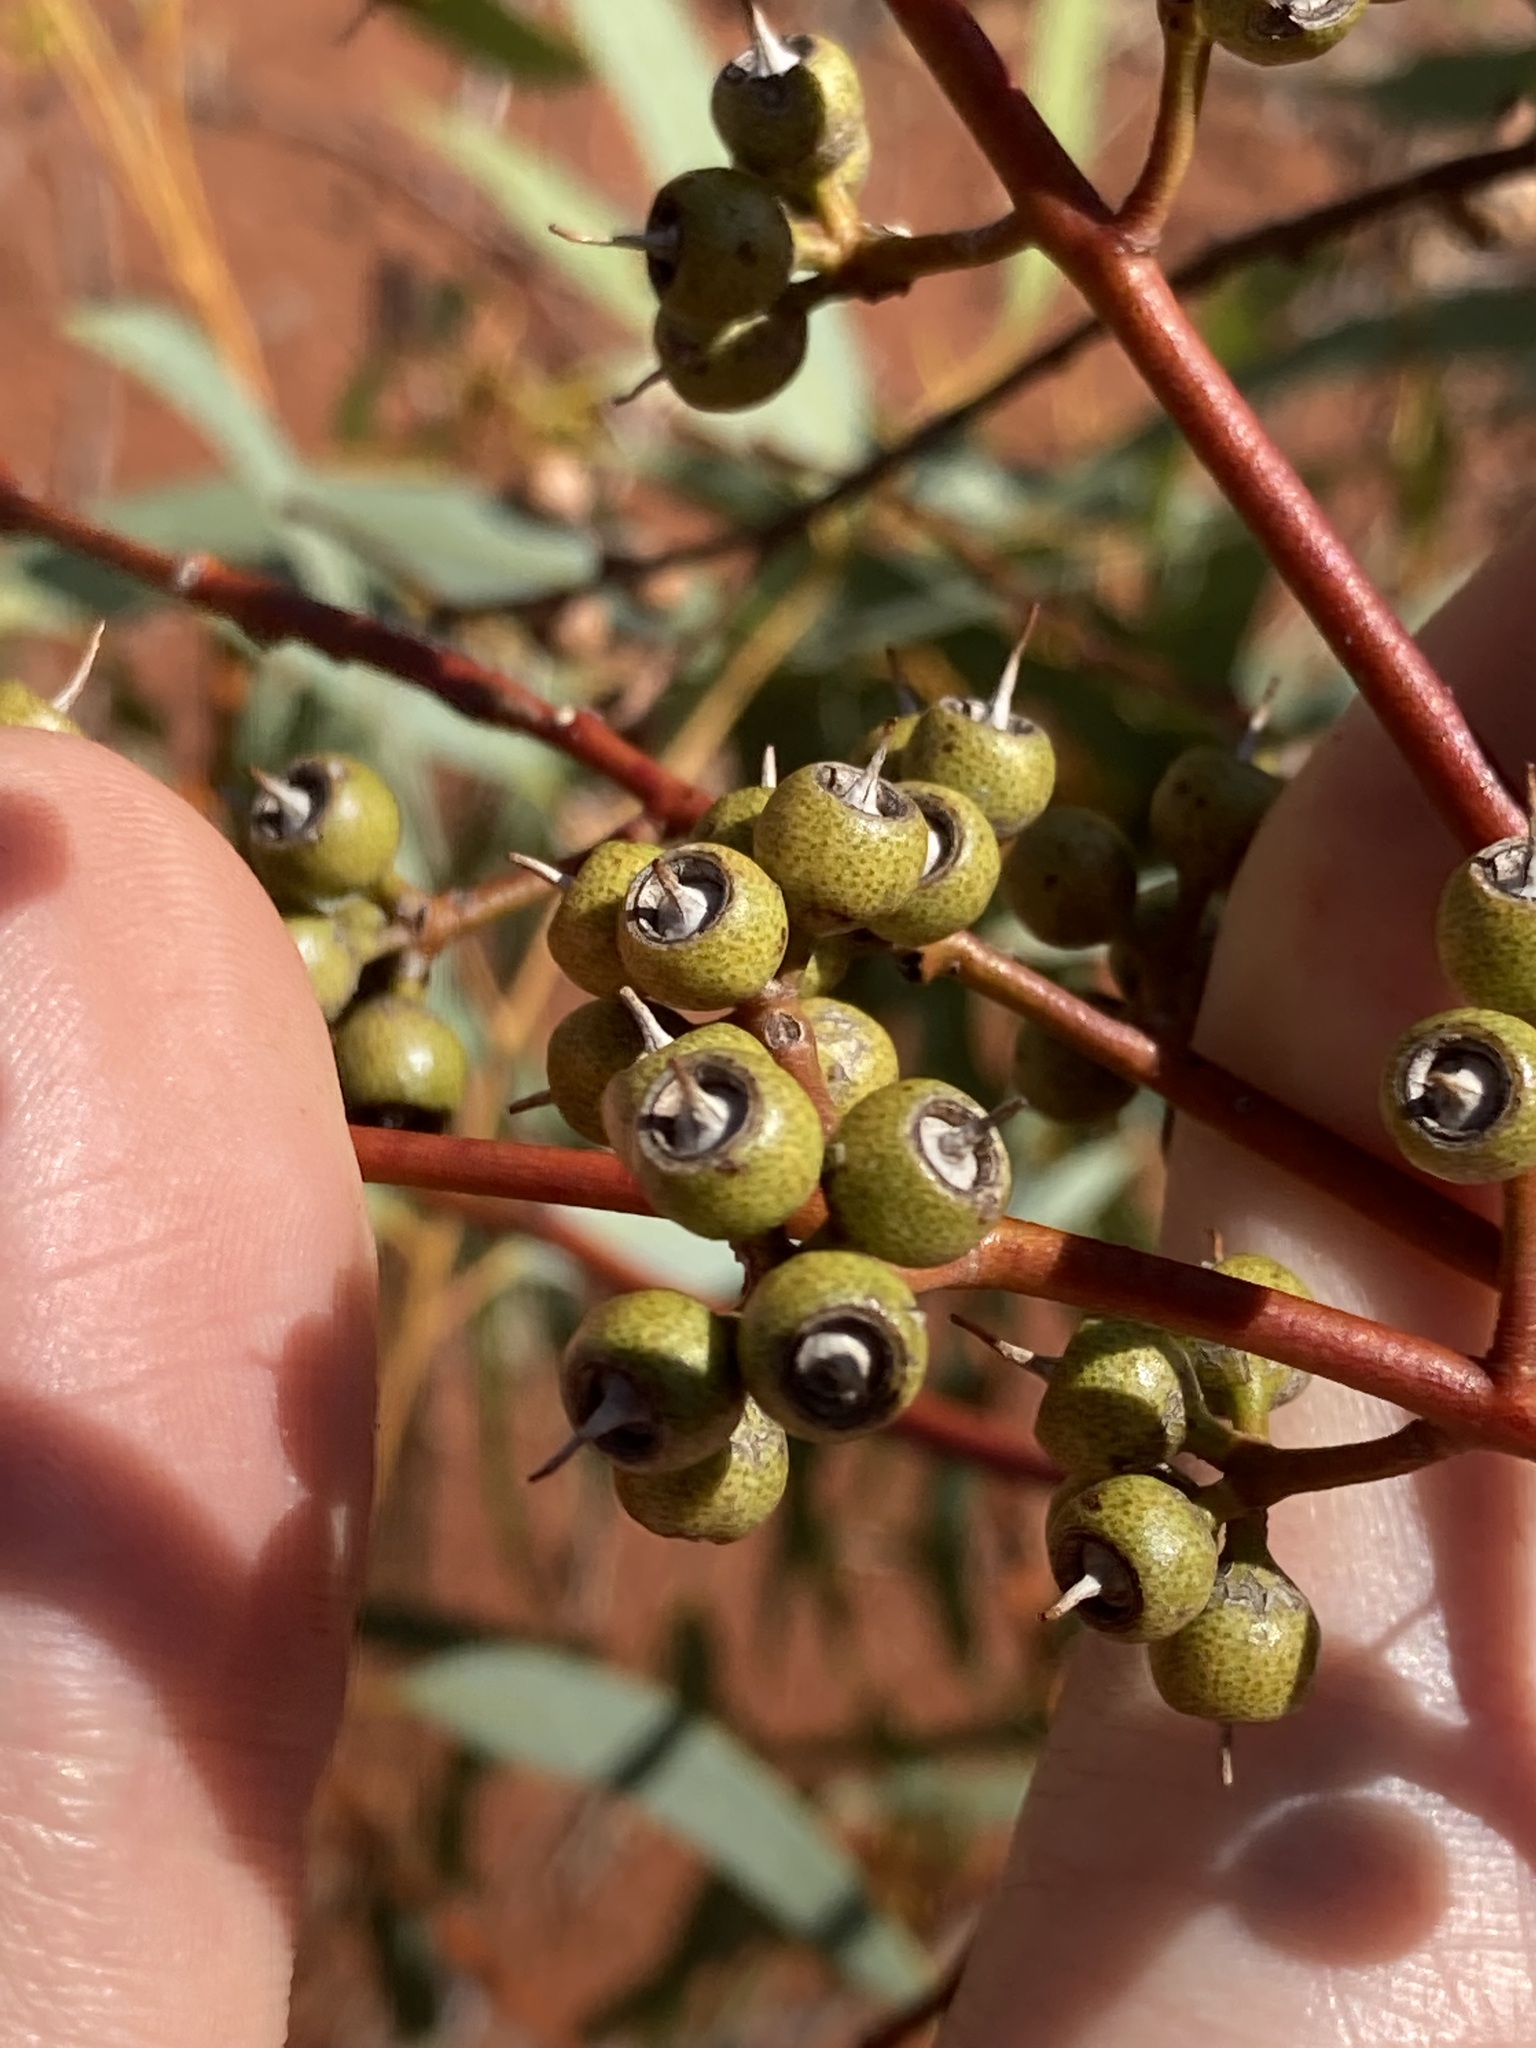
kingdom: Plantae
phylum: Tracheophyta
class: Magnoliopsida
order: Myrtales
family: Myrtaceae
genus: Eucalyptus
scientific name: Eucalyptus eremicola
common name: Nawa mallee
